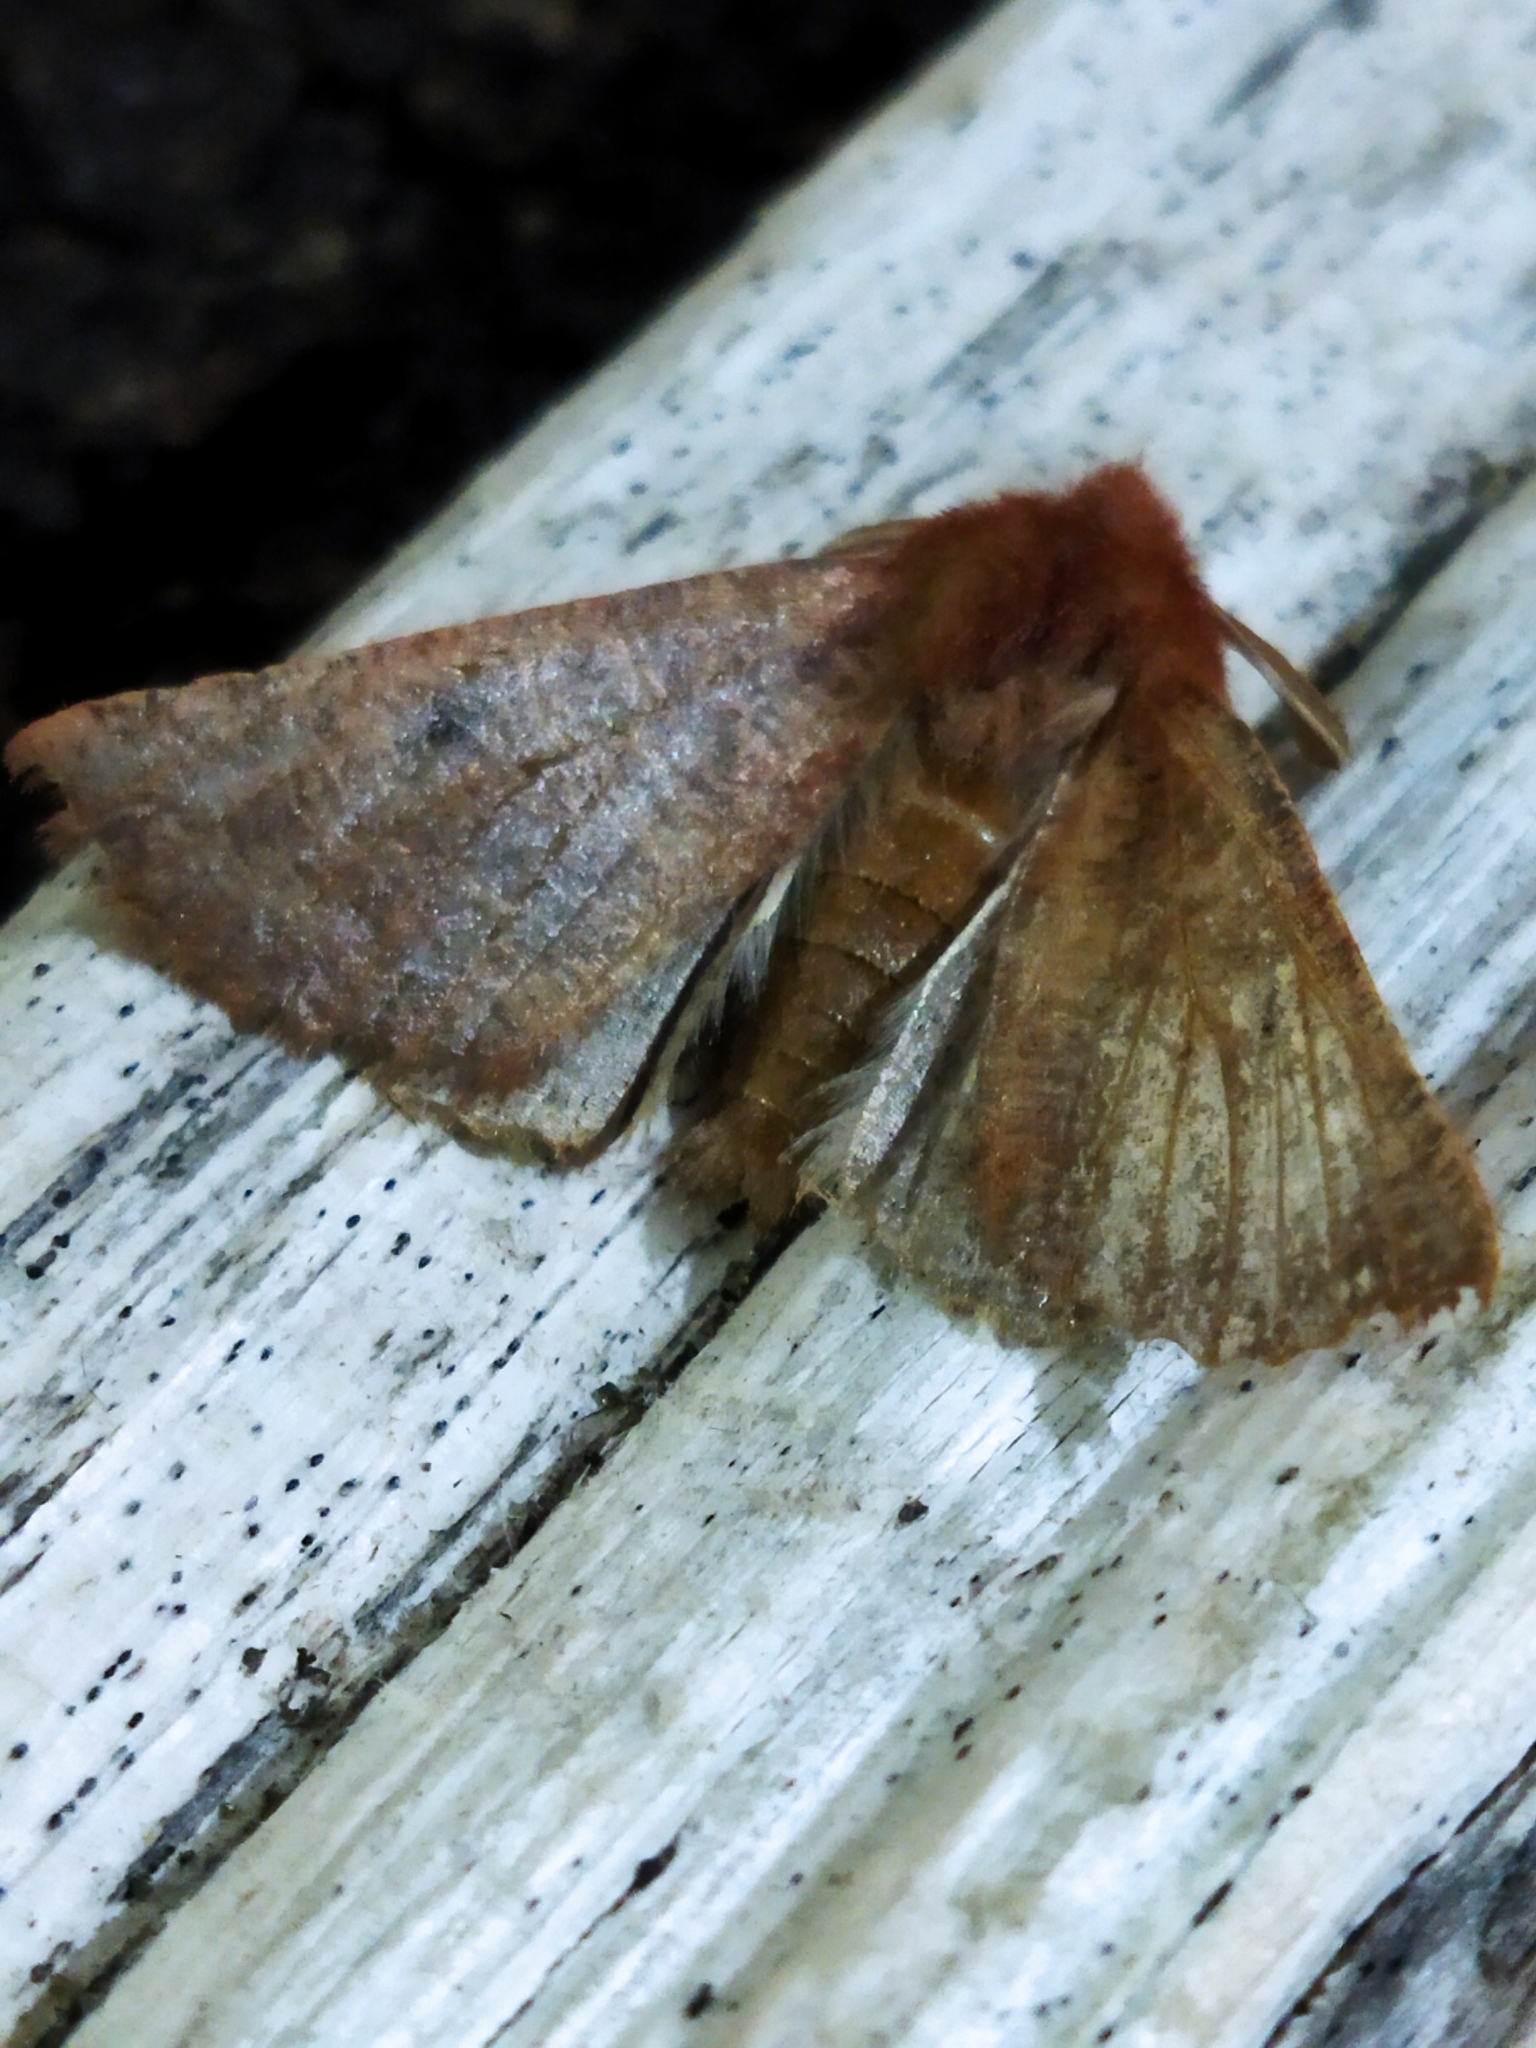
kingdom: Animalia
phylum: Arthropoda
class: Insecta
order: Lepidoptera
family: Geometridae
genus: Dasycorsa
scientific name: Dasycorsa modesta
